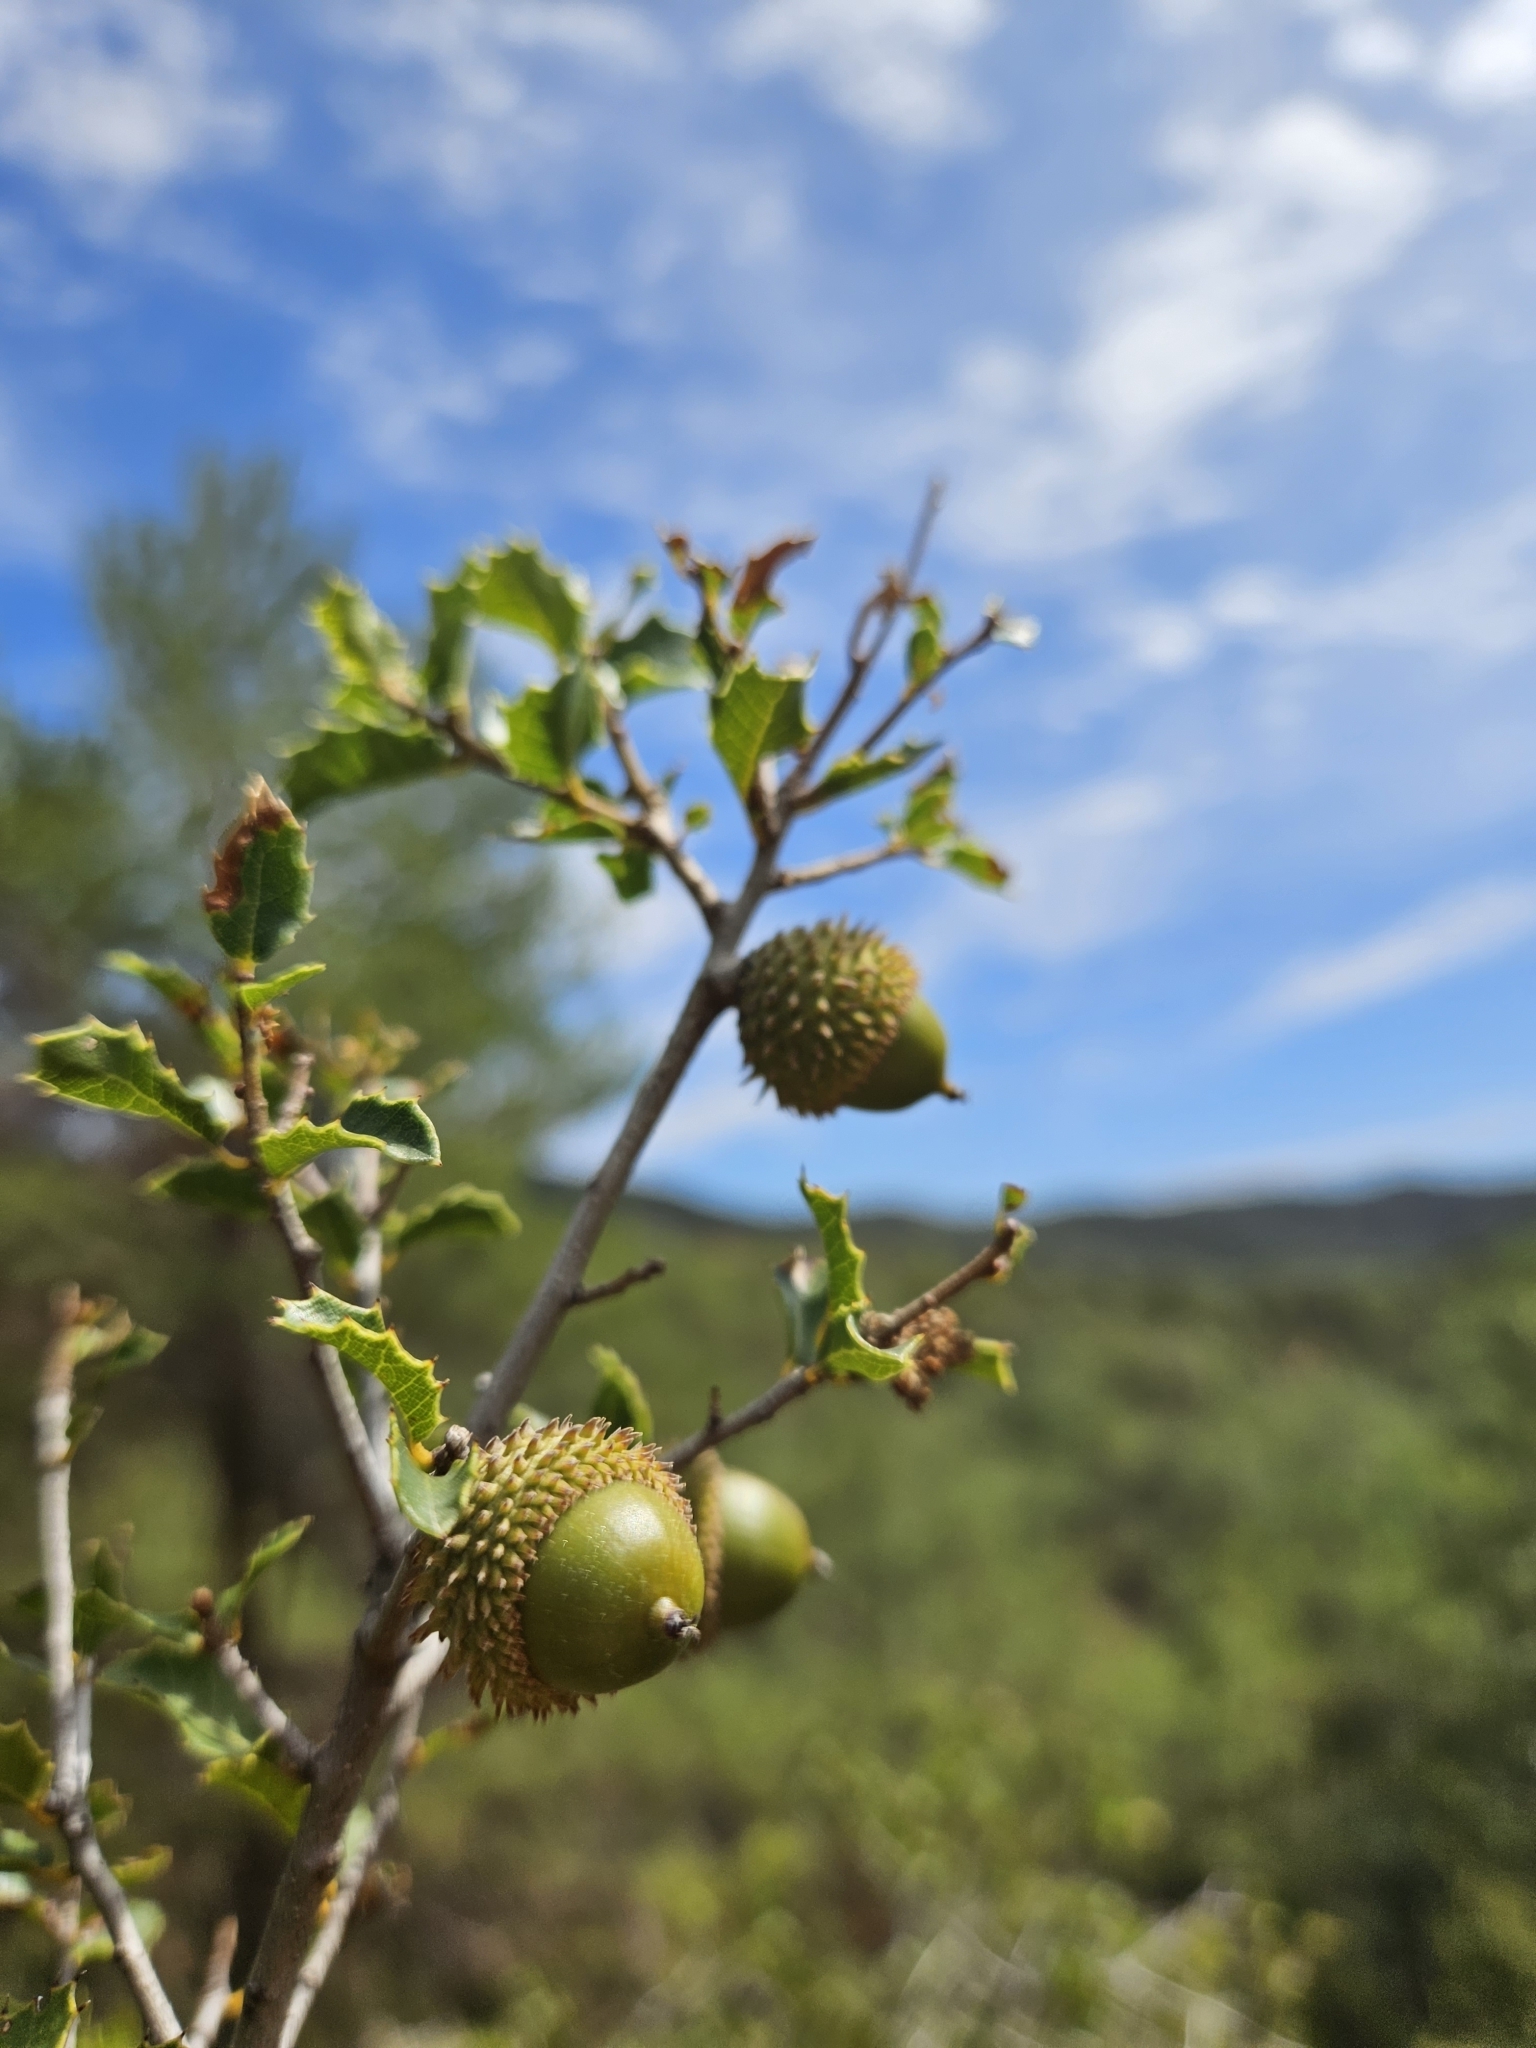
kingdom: Plantae
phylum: Tracheophyta
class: Magnoliopsida
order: Fagales
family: Fagaceae
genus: Quercus
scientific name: Quercus coccifera
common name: Kermes oak
